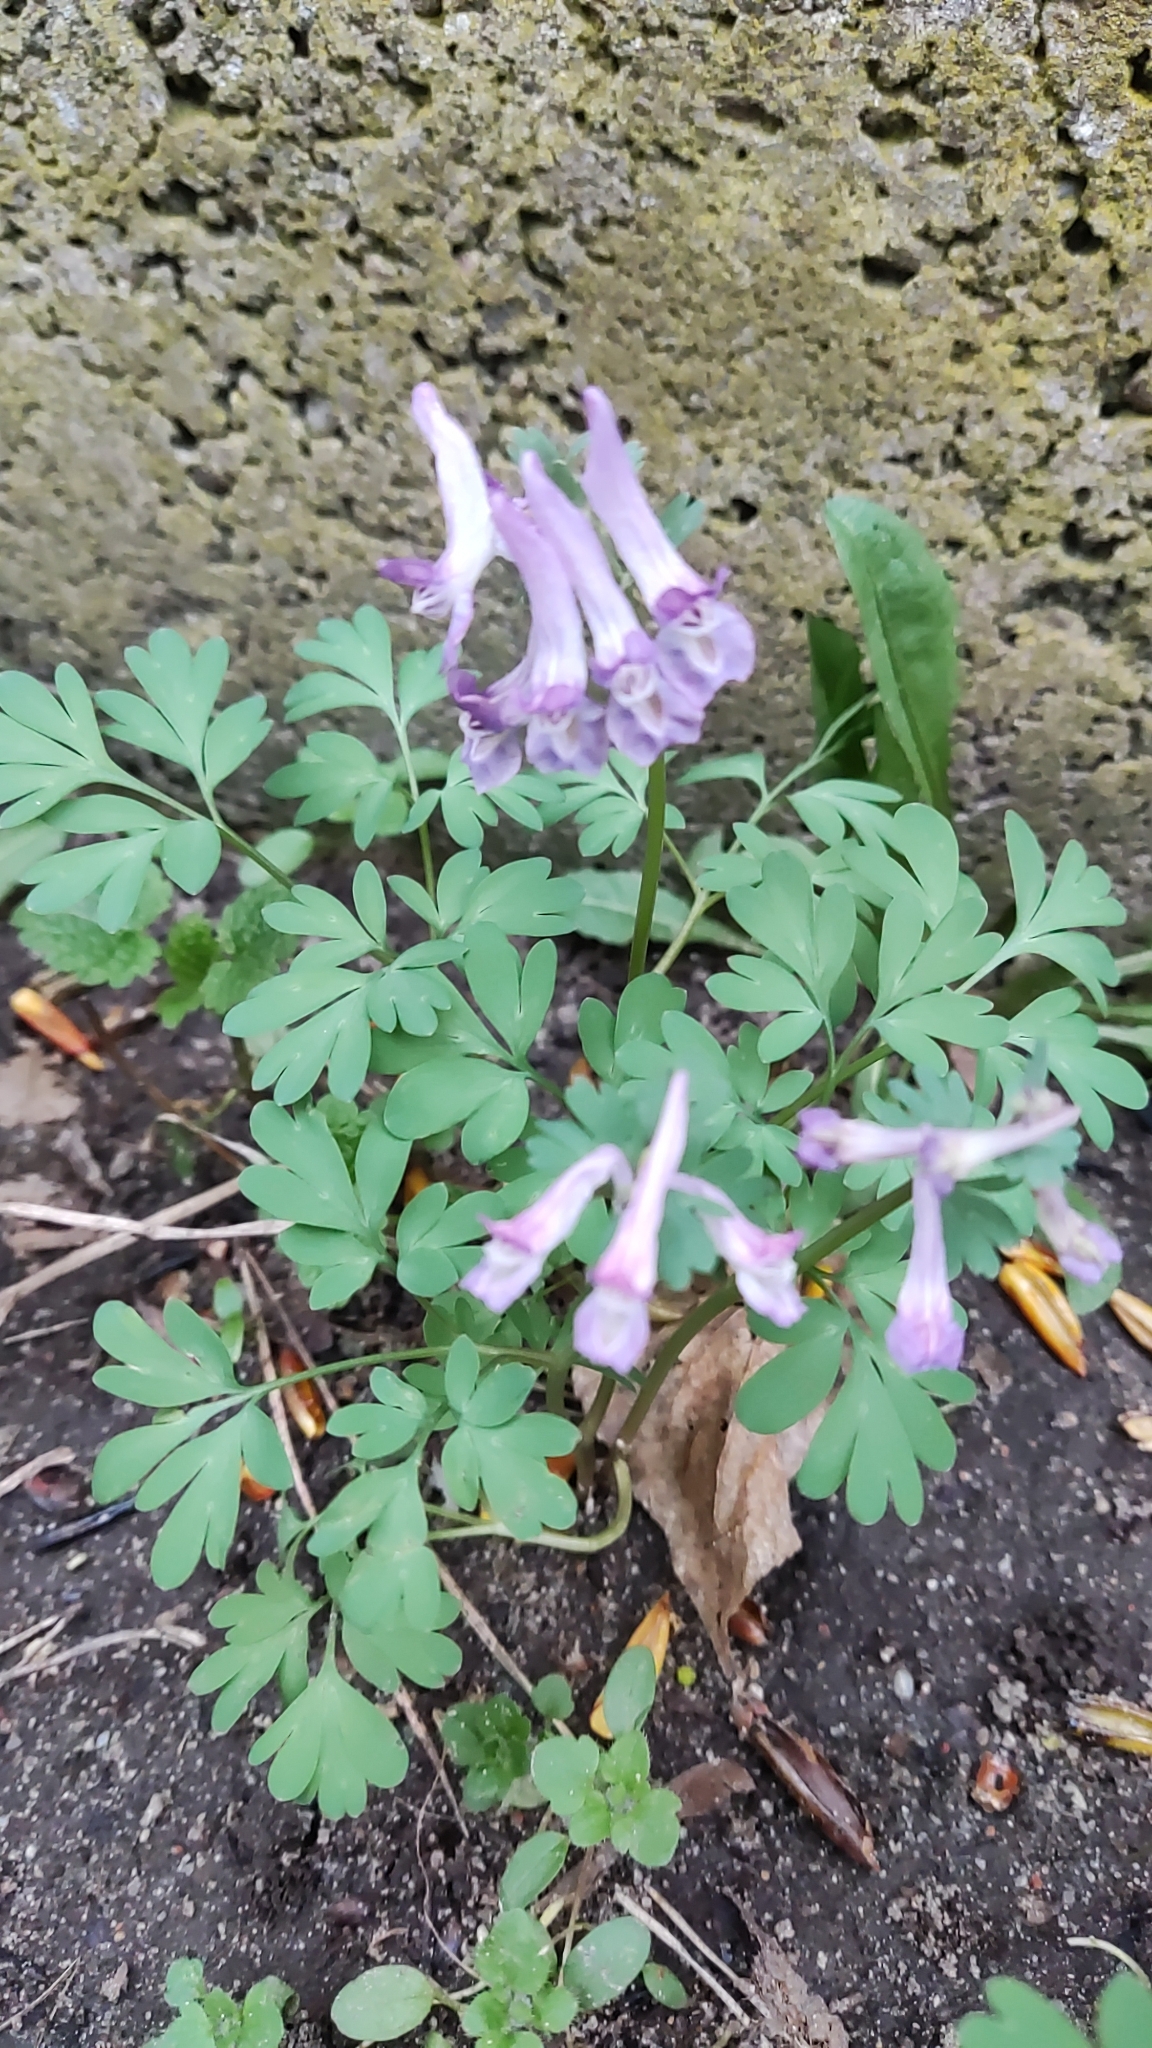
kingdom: Plantae
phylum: Tracheophyta
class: Magnoliopsida
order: Ranunculales
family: Papaveraceae
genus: Corydalis
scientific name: Corydalis solida
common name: Bird-in-a-bush
